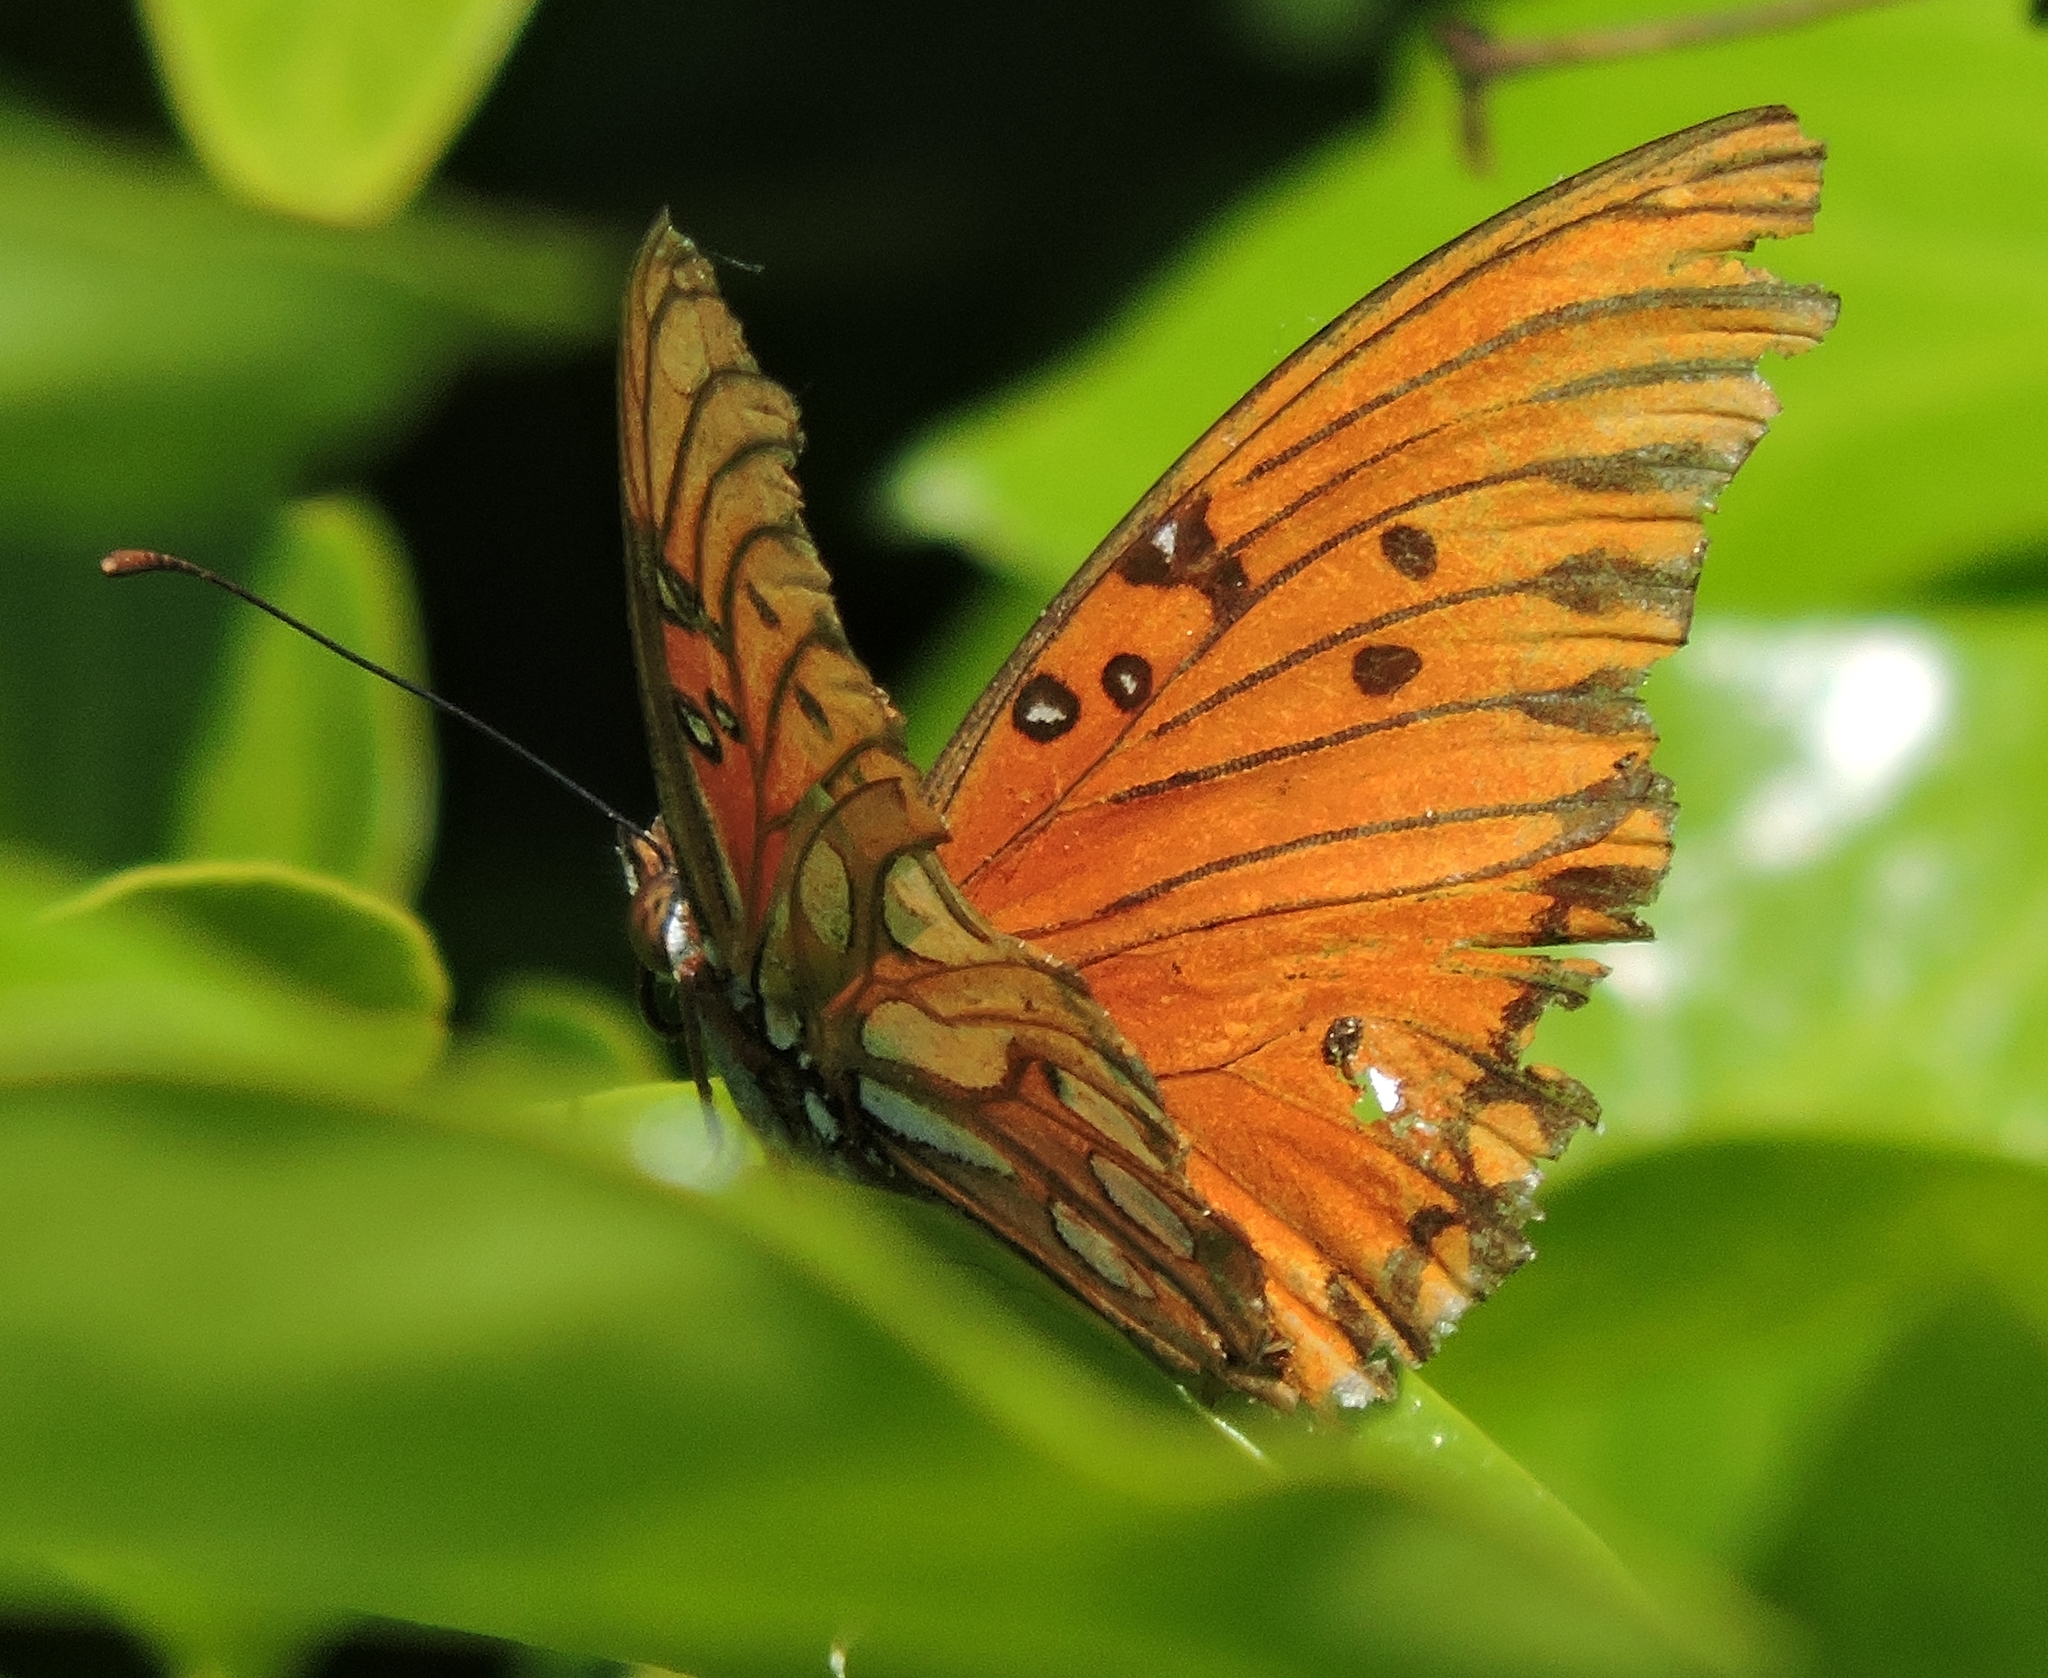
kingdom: Animalia
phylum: Arthropoda
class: Insecta
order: Lepidoptera
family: Nymphalidae
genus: Dione
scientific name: Dione vanillae
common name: Gulf fritillary
